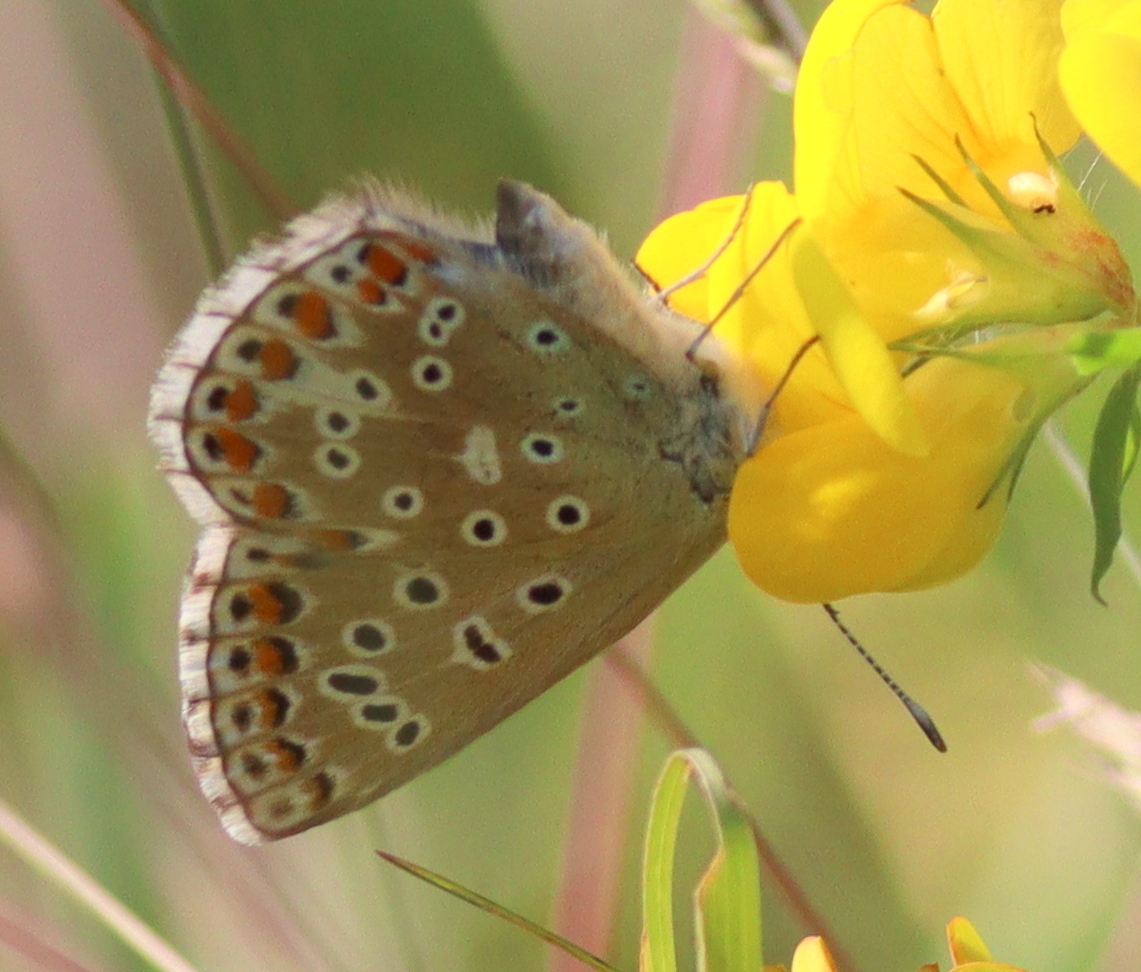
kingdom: Animalia
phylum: Arthropoda
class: Insecta
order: Lepidoptera
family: Lycaenidae
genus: Lysandra
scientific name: Lysandra bellargus
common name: Adonis blue
